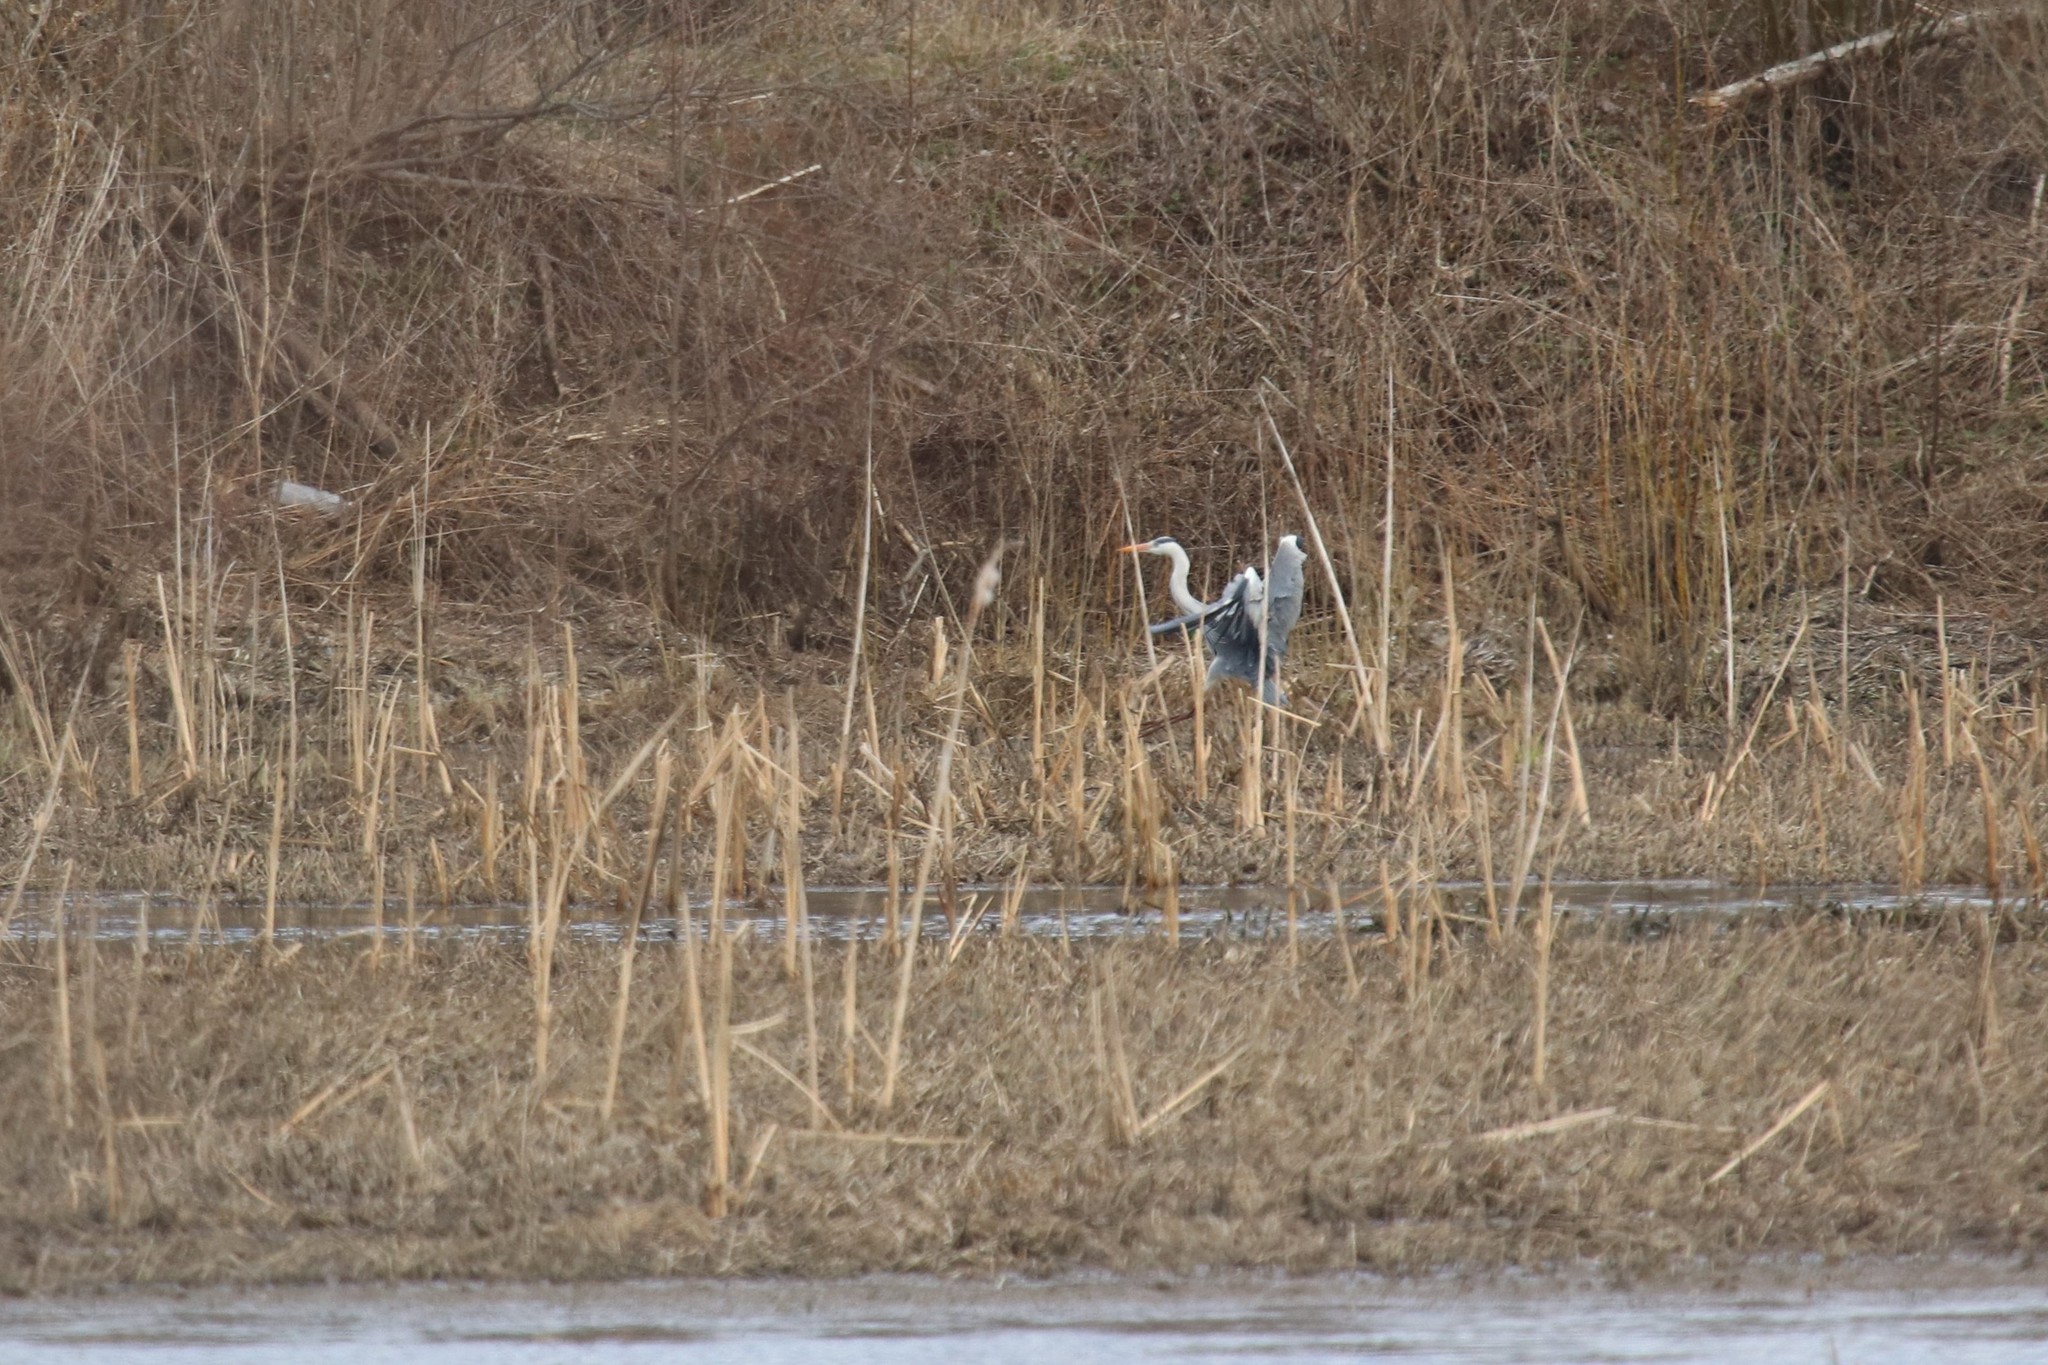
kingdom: Animalia
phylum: Chordata
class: Aves
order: Pelecaniformes
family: Ardeidae
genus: Ardea
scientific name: Ardea cinerea
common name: Grey heron
